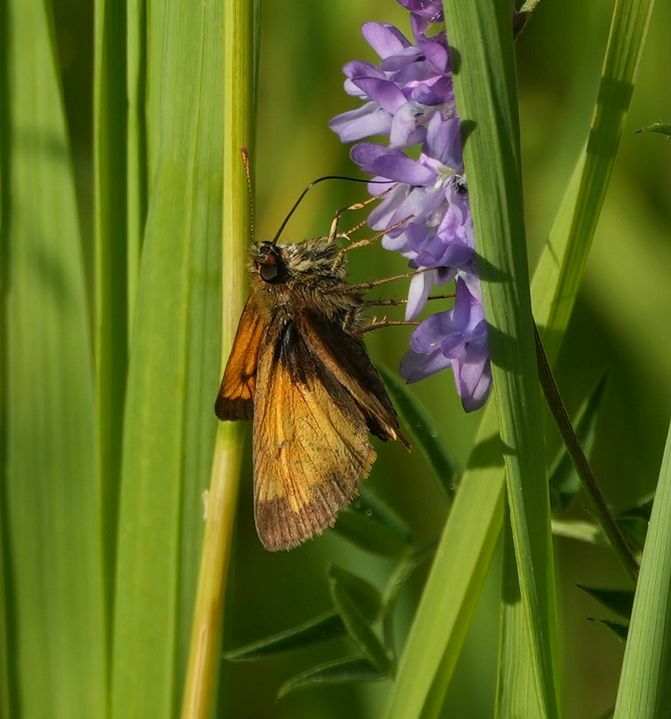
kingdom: Animalia
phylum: Arthropoda
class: Insecta
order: Lepidoptera
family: Hesperiidae
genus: Lon
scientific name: Lon hobomok
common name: Hobomok skipper
